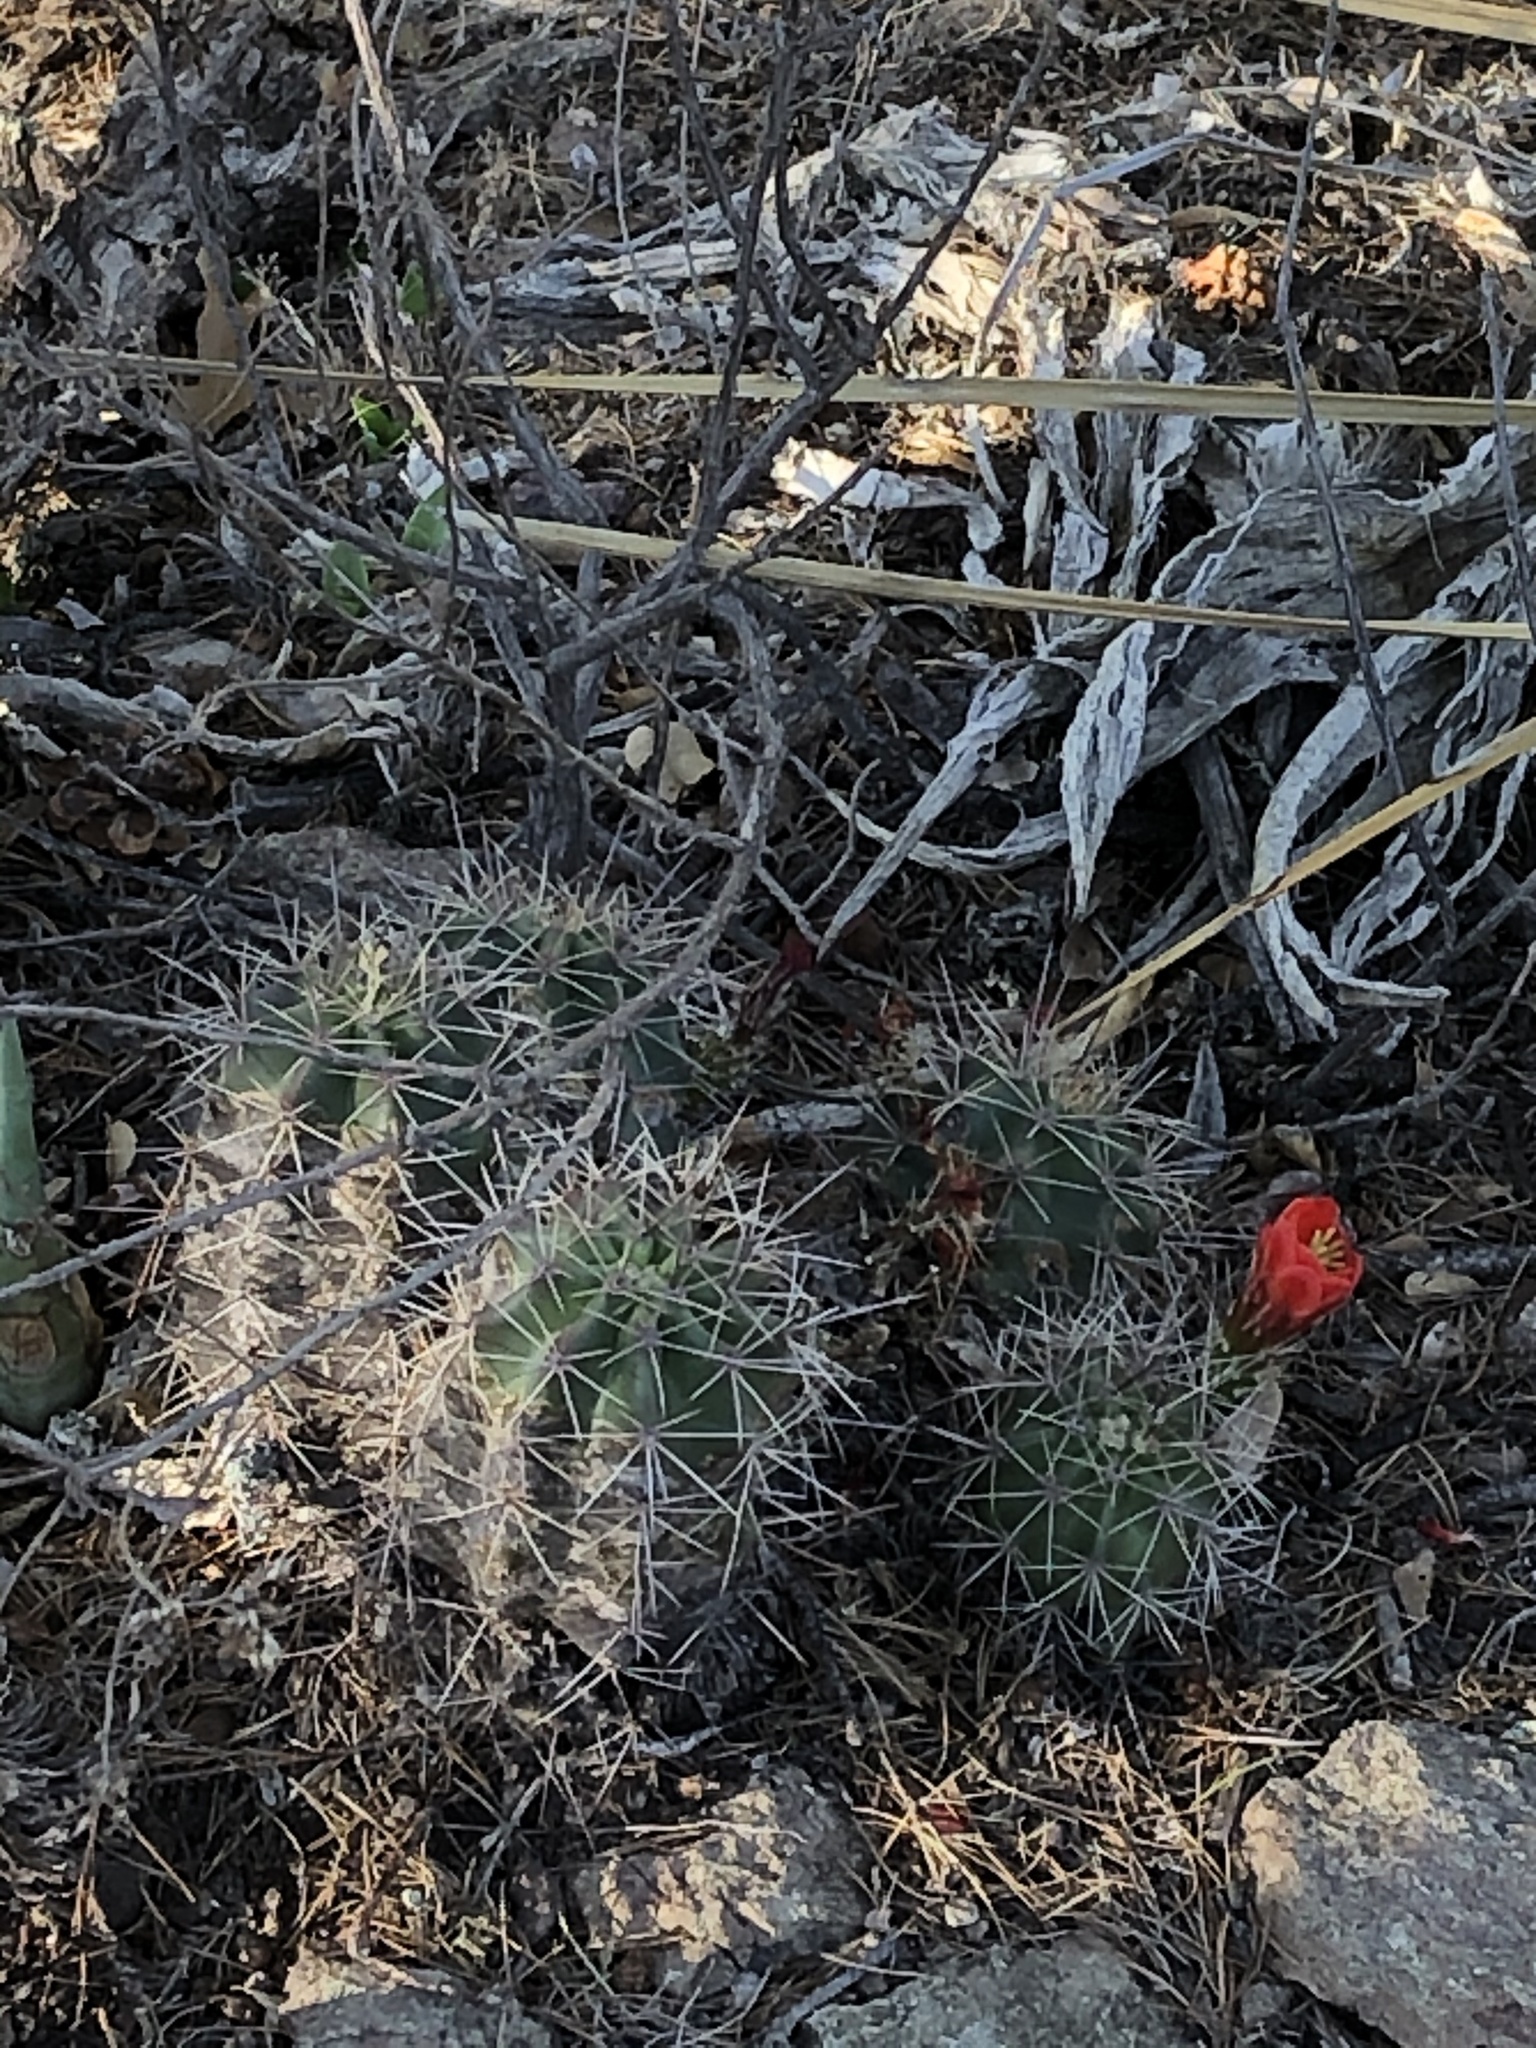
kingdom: Plantae
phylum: Tracheophyta
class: Magnoliopsida
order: Caryophyllales
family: Cactaceae
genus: Echinocereus
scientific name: Echinocereus coccineus
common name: Scarlet hedgehog cactus
